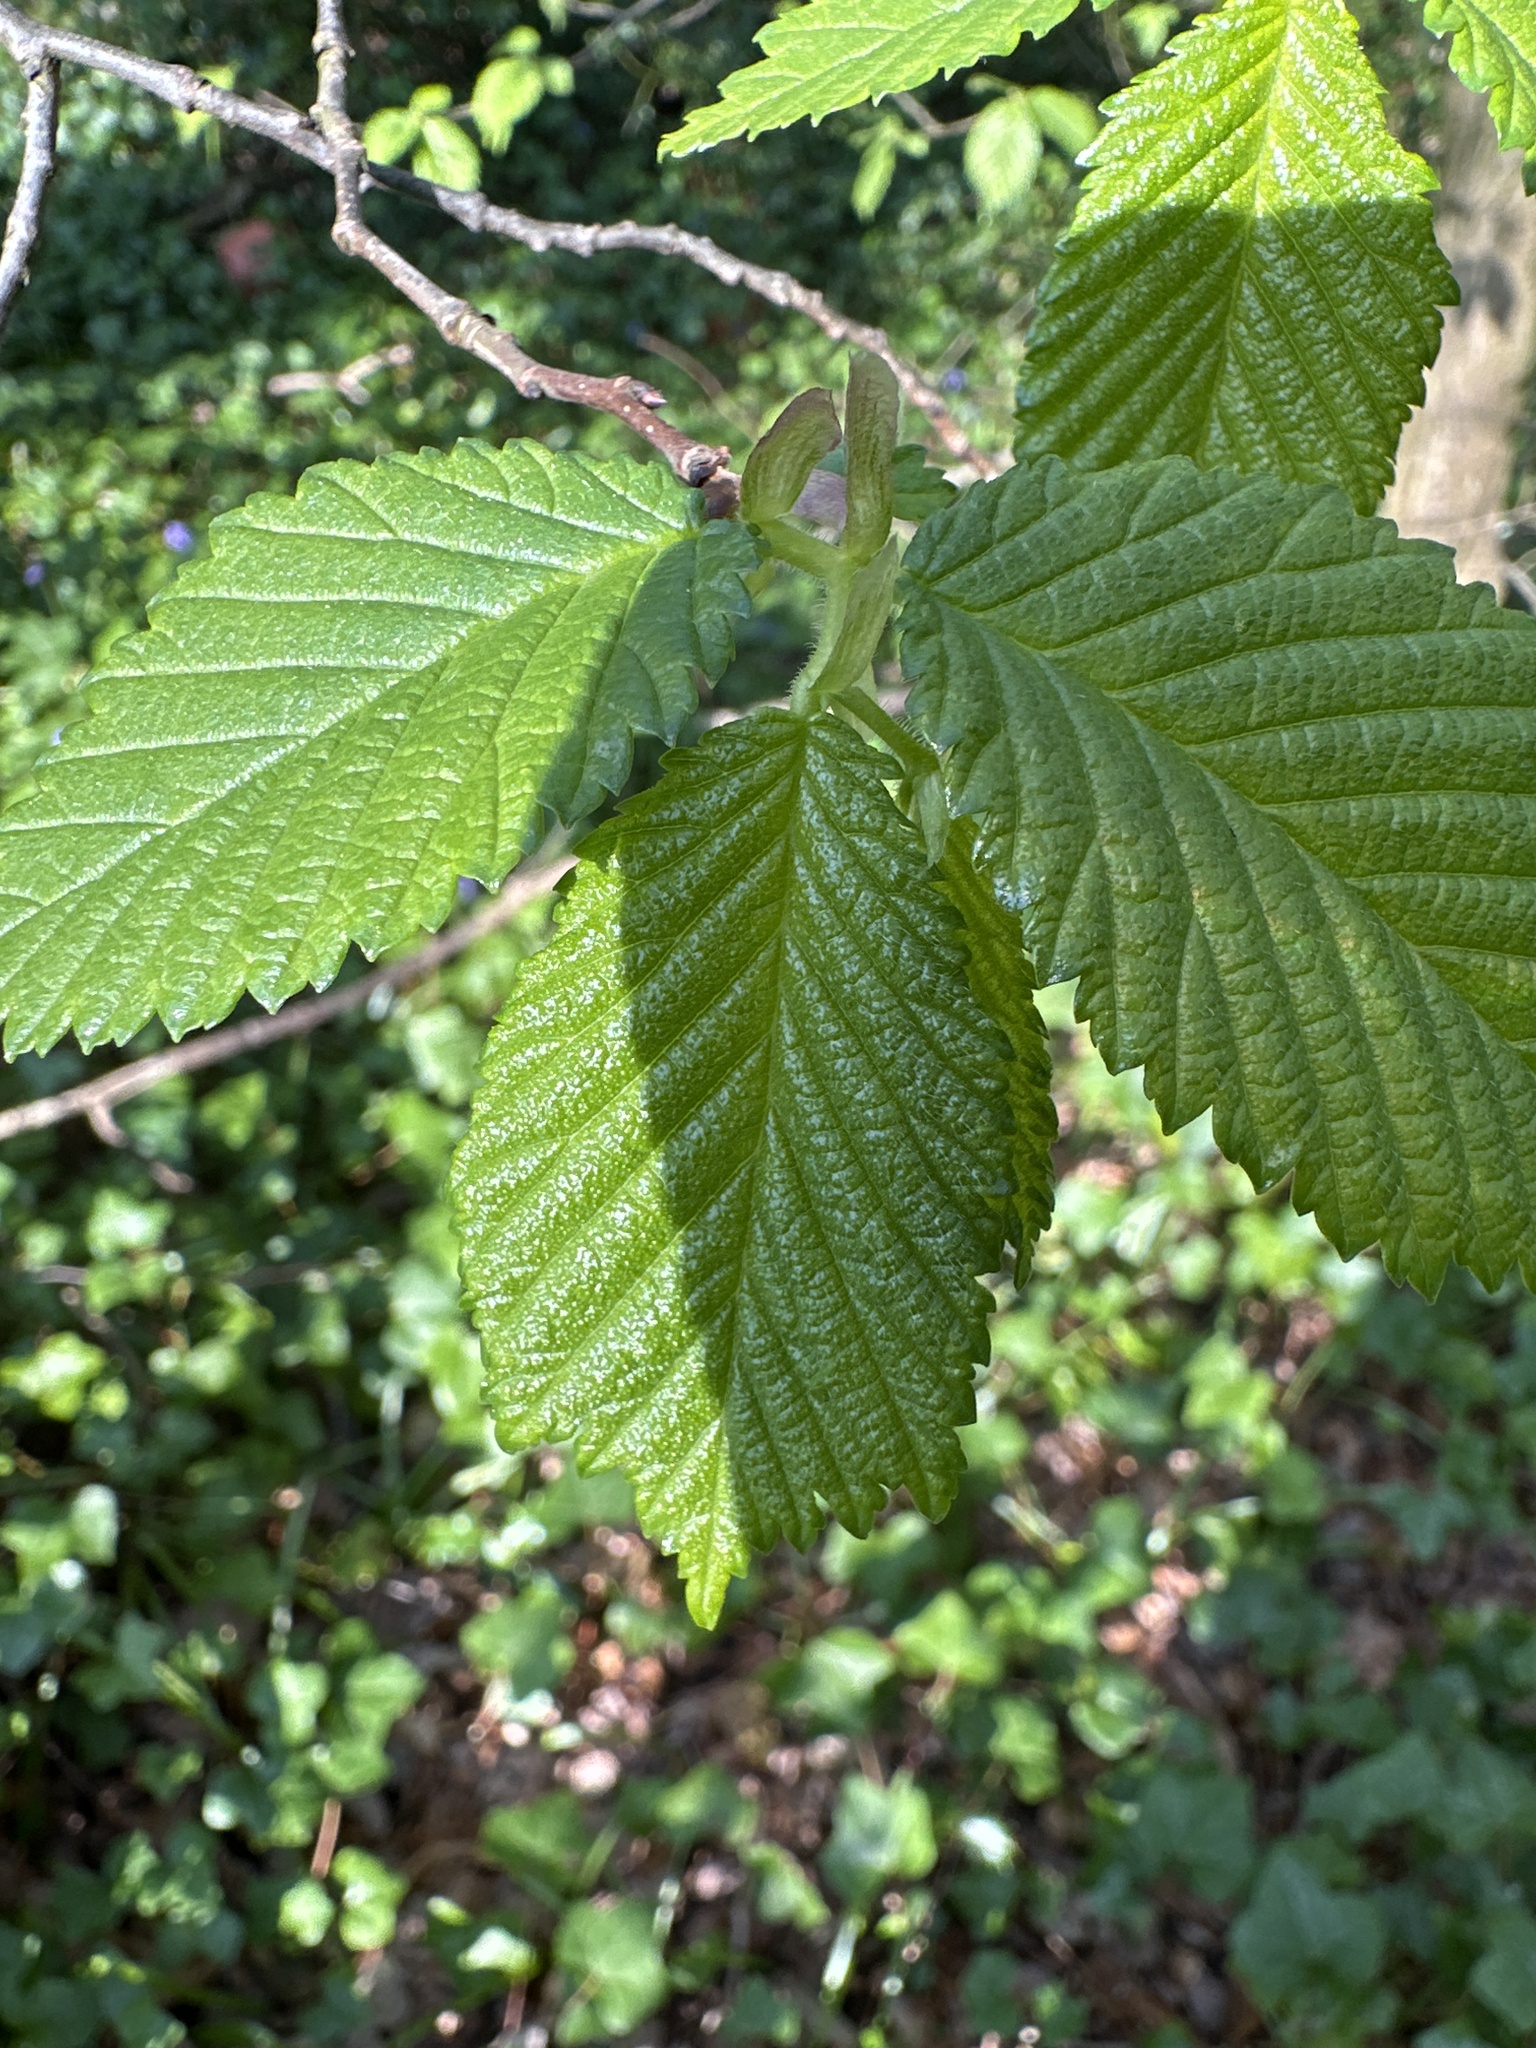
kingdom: Plantae
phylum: Tracheophyta
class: Magnoliopsida
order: Rosales
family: Ulmaceae
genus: Ulmus
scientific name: Ulmus glabra
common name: Wych elm
